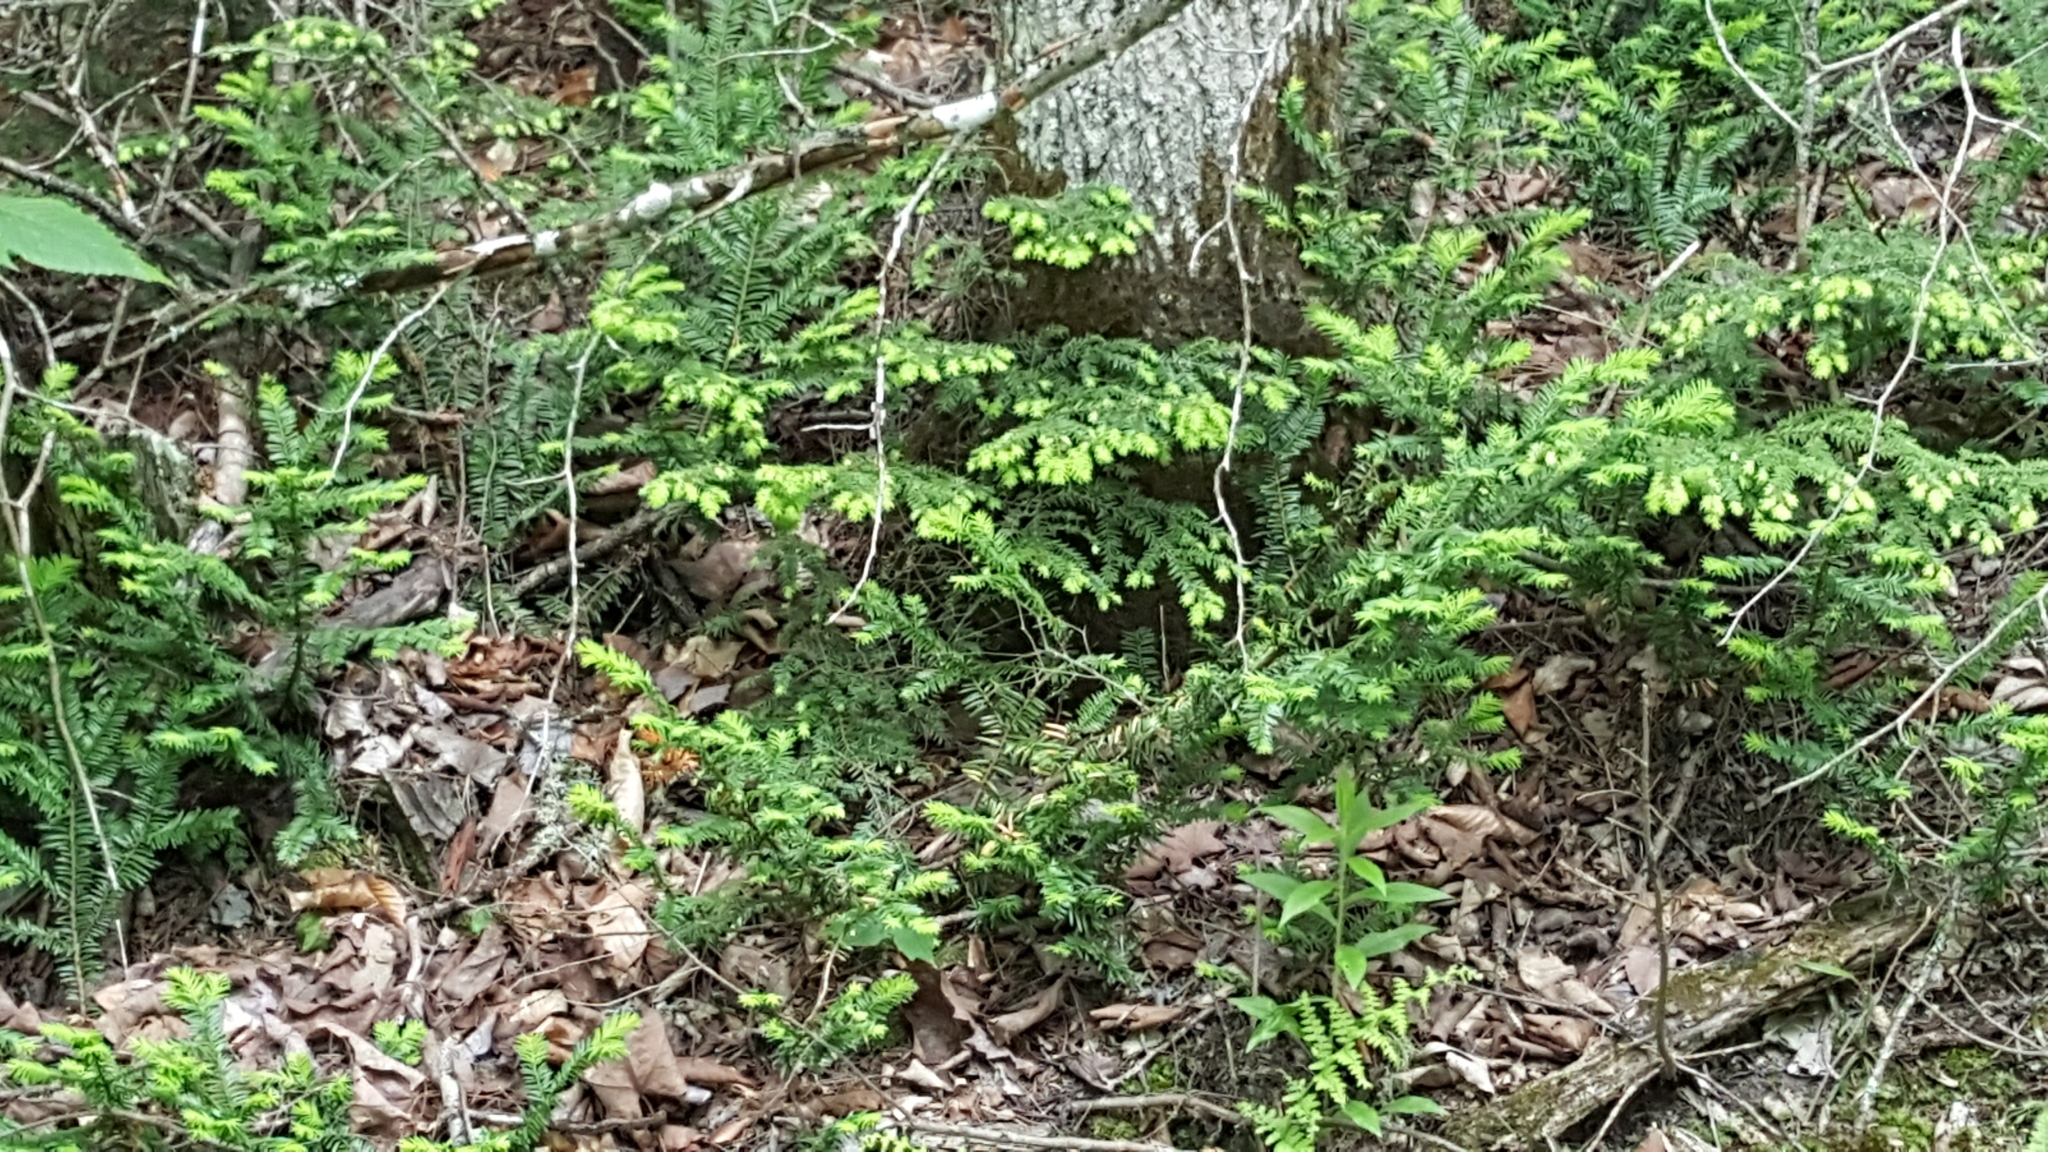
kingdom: Plantae
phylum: Tracheophyta
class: Pinopsida
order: Pinales
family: Taxaceae
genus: Taxus
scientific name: Taxus canadensis
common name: American yew
